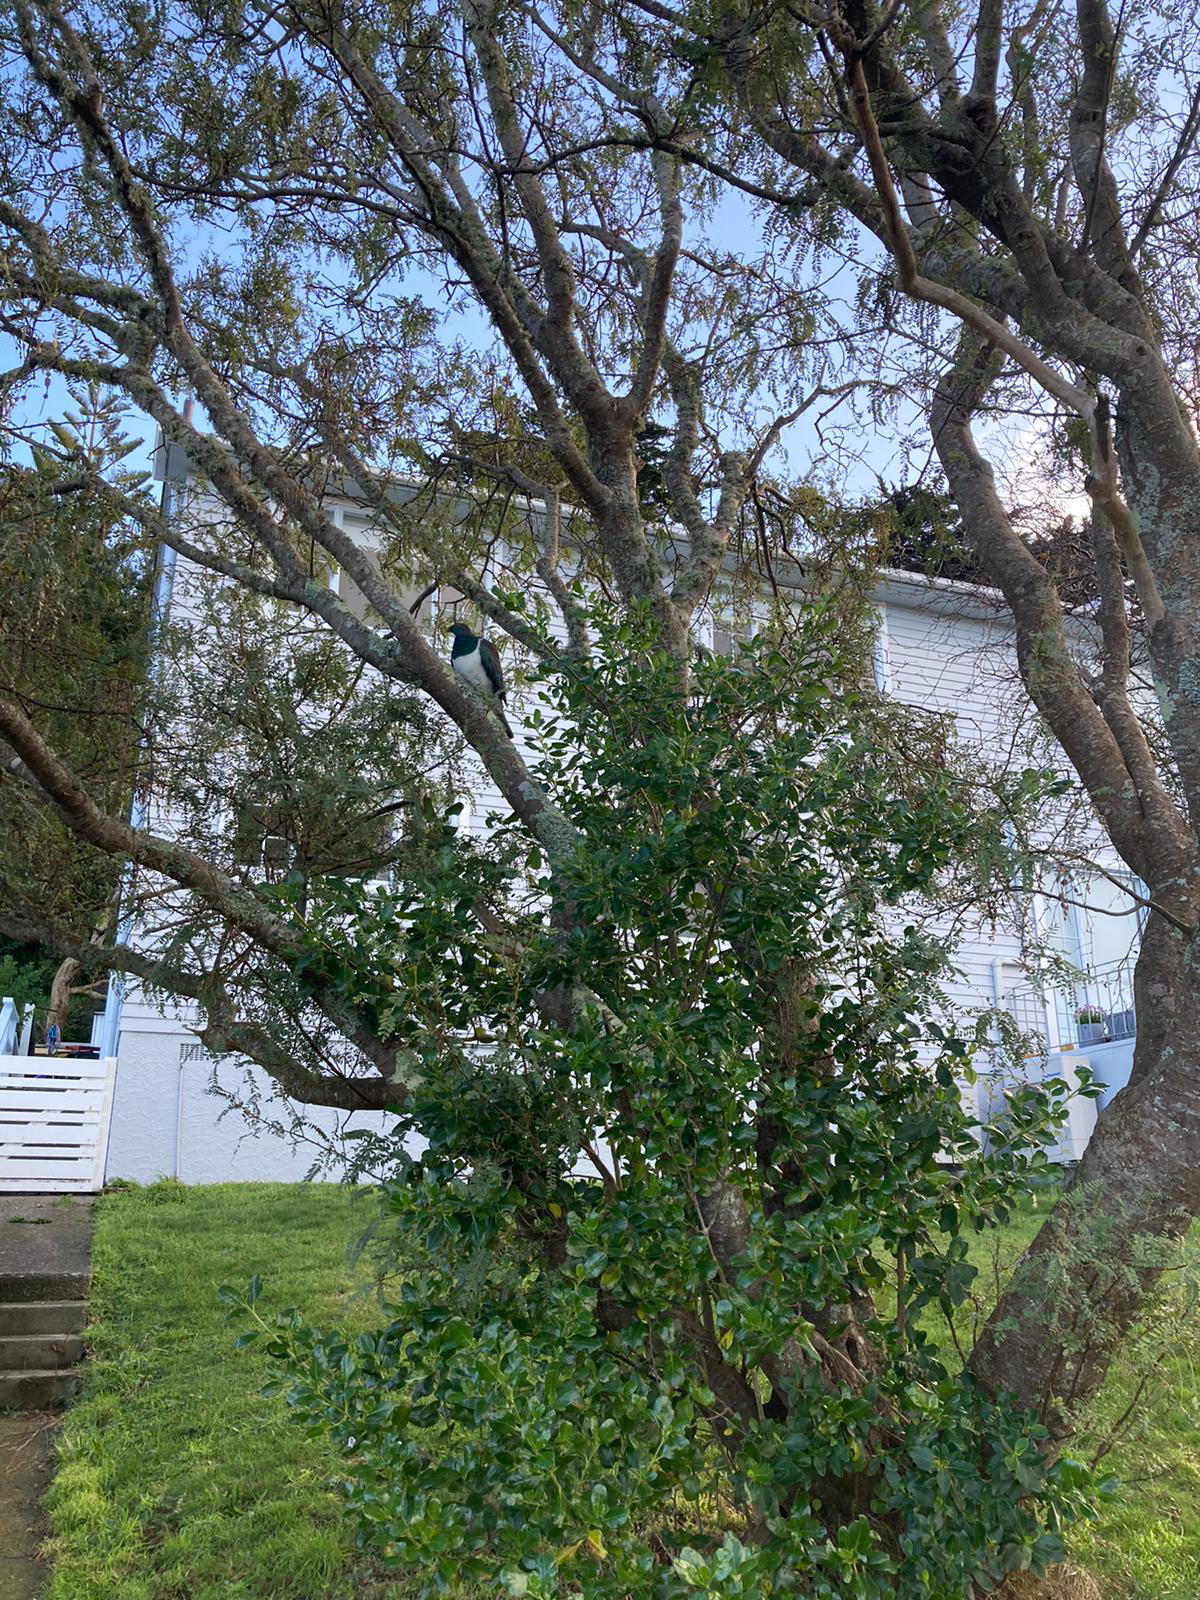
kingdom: Animalia
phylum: Chordata
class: Aves
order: Columbiformes
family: Columbidae
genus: Hemiphaga
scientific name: Hemiphaga novaeseelandiae
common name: New zealand pigeon
